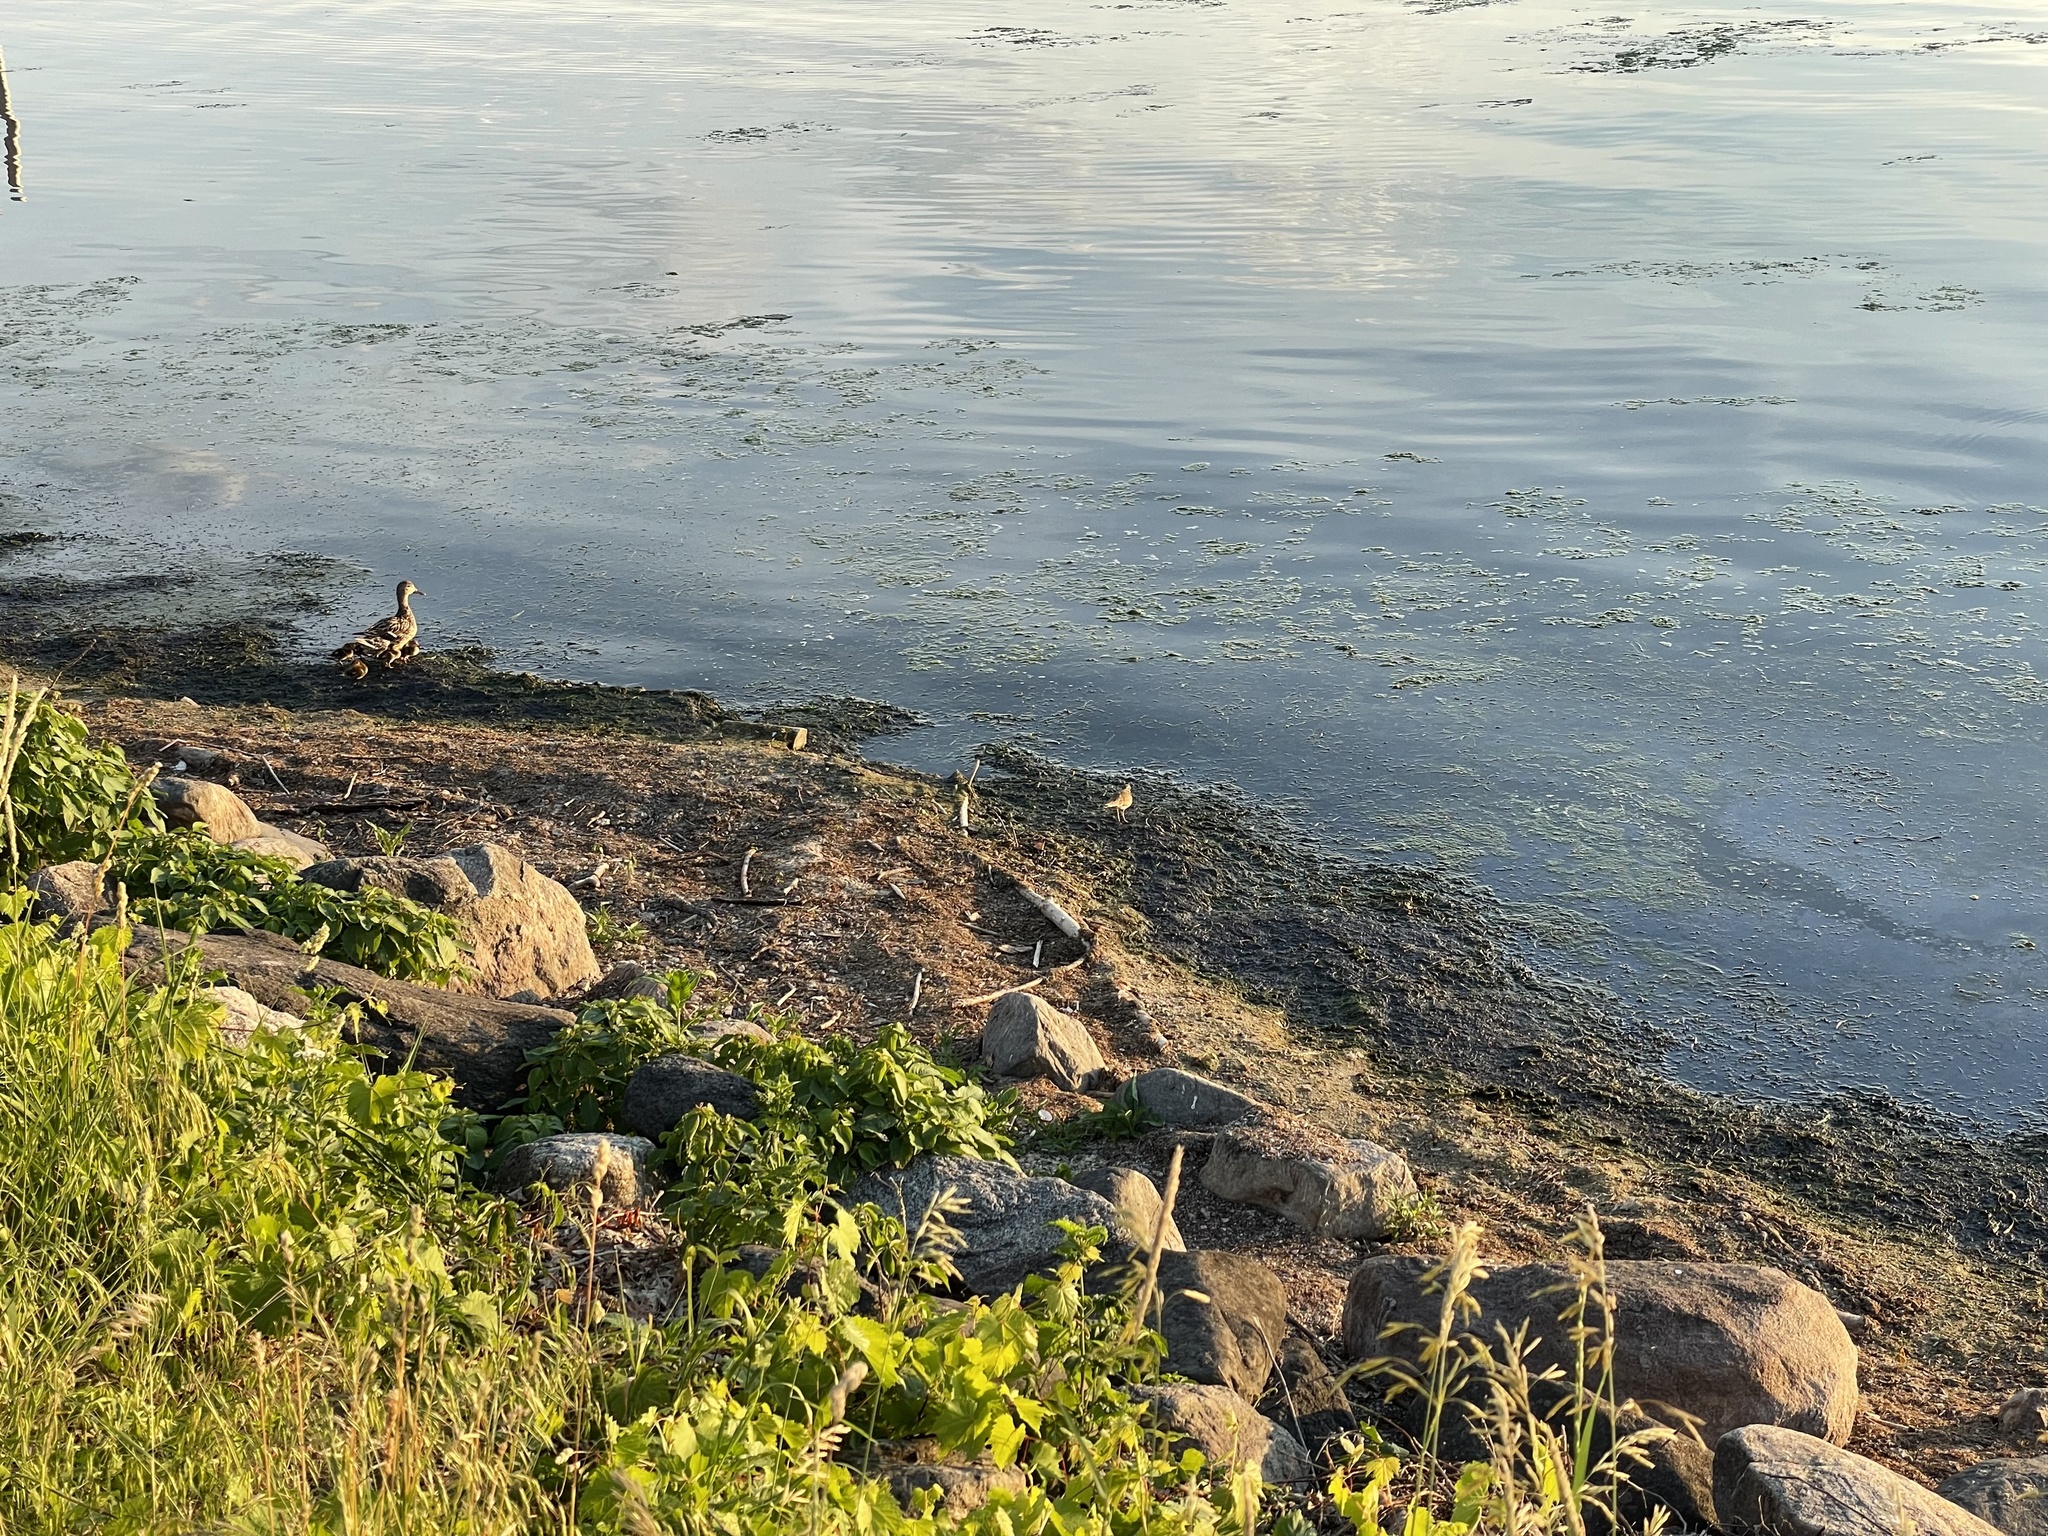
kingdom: Animalia
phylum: Chordata
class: Aves
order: Charadriiformes
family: Charadriidae
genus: Charadrius
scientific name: Charadrius vociferus
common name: Killdeer
